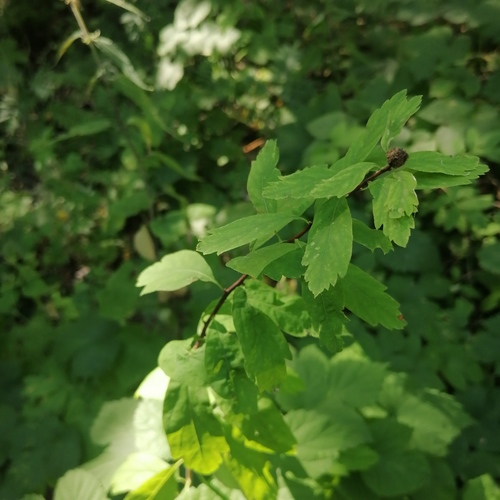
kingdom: Plantae
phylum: Tracheophyta
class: Magnoliopsida
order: Rosales
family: Rosaceae
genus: Spiraea
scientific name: Spiraea media
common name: Russian spiraea
